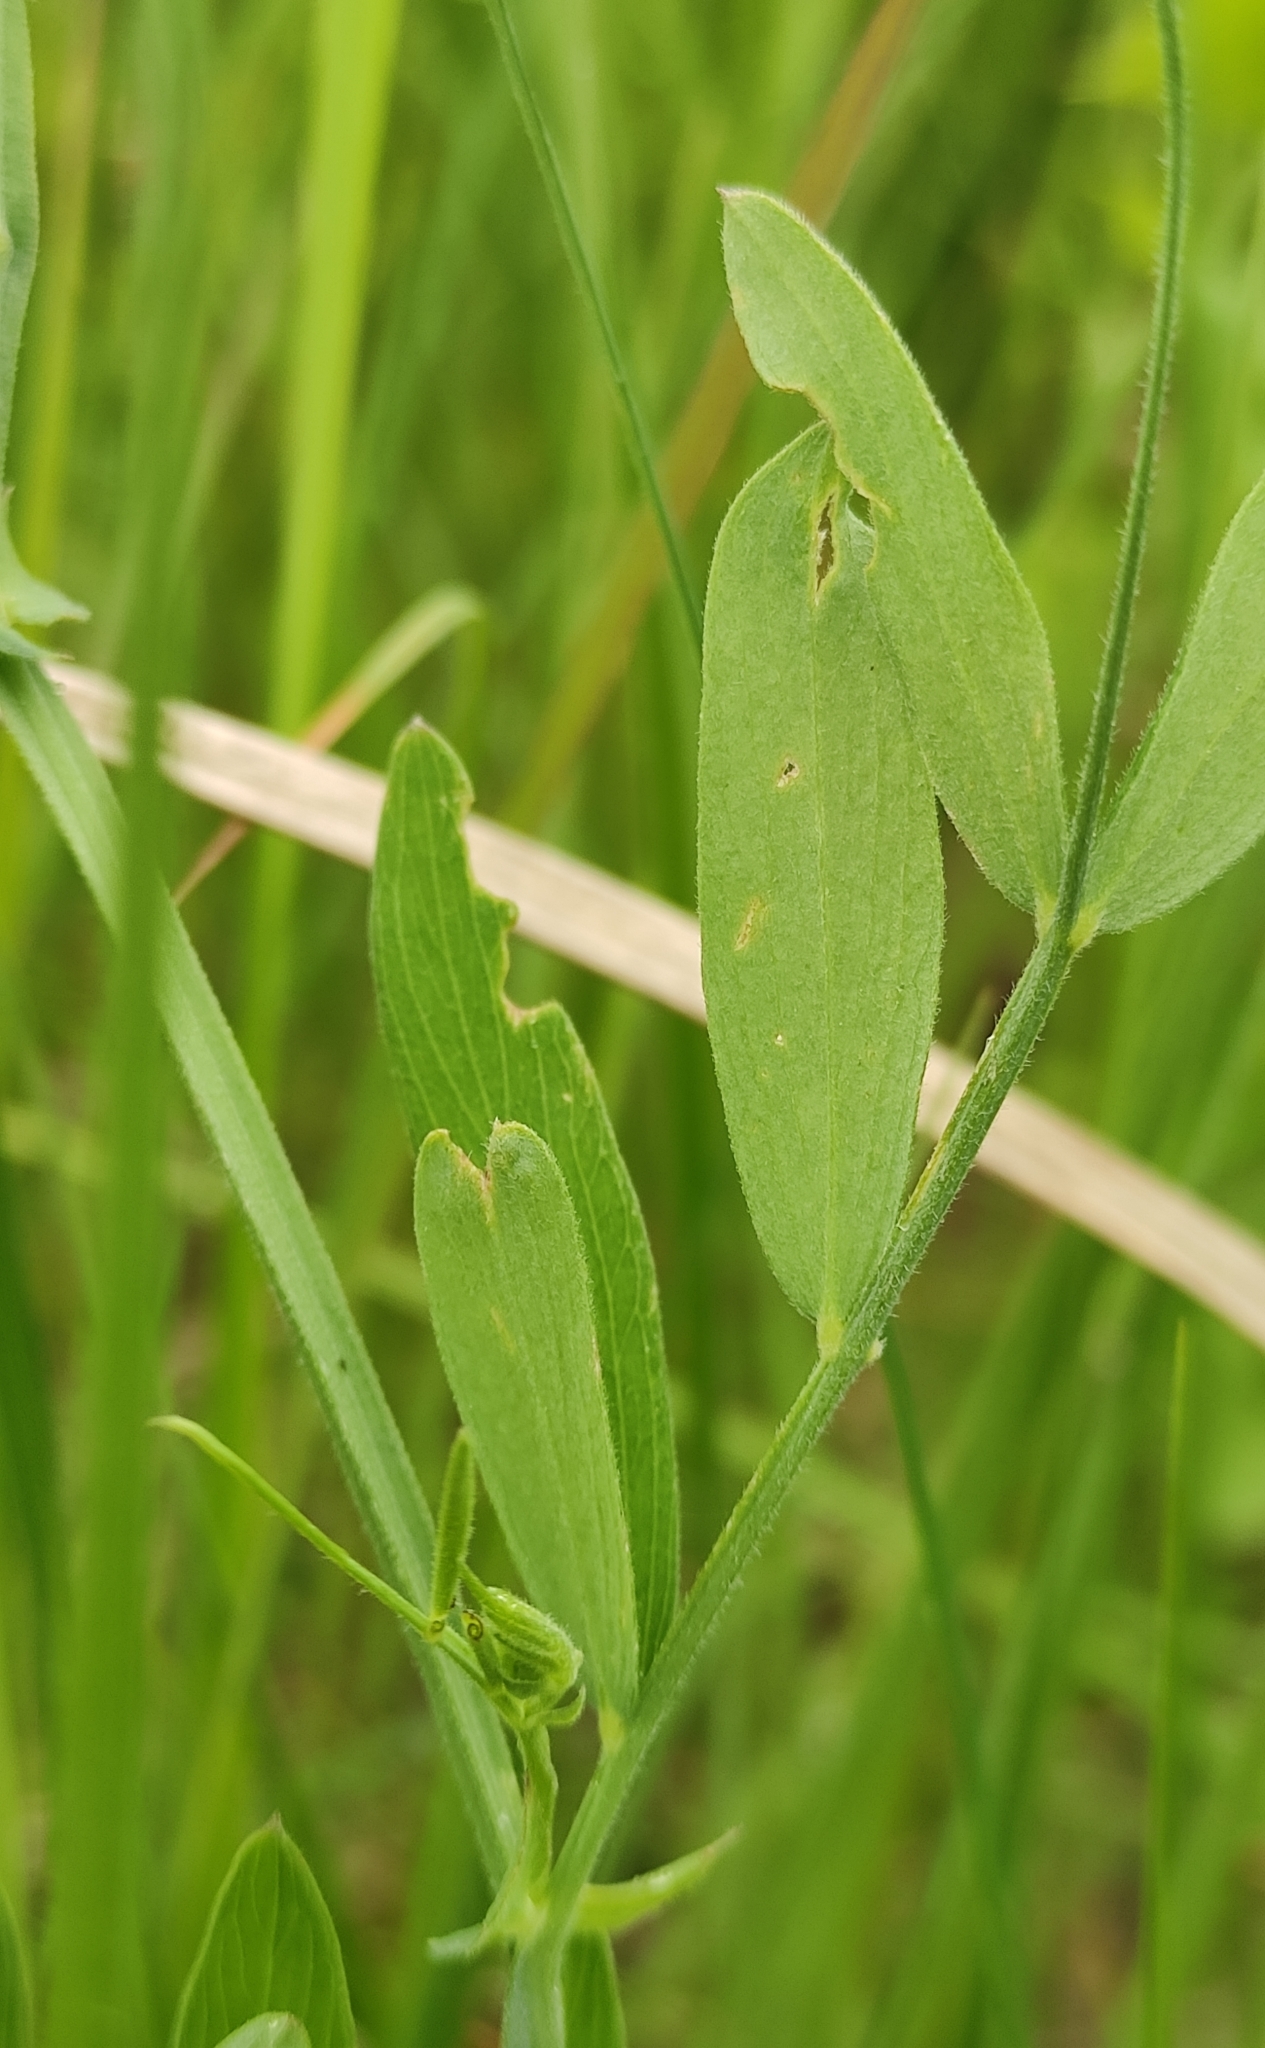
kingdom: Plantae
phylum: Tracheophyta
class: Magnoliopsida
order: Fabales
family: Fabaceae
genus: Lathyrus
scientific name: Lathyrus palustris
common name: Marsh pea
